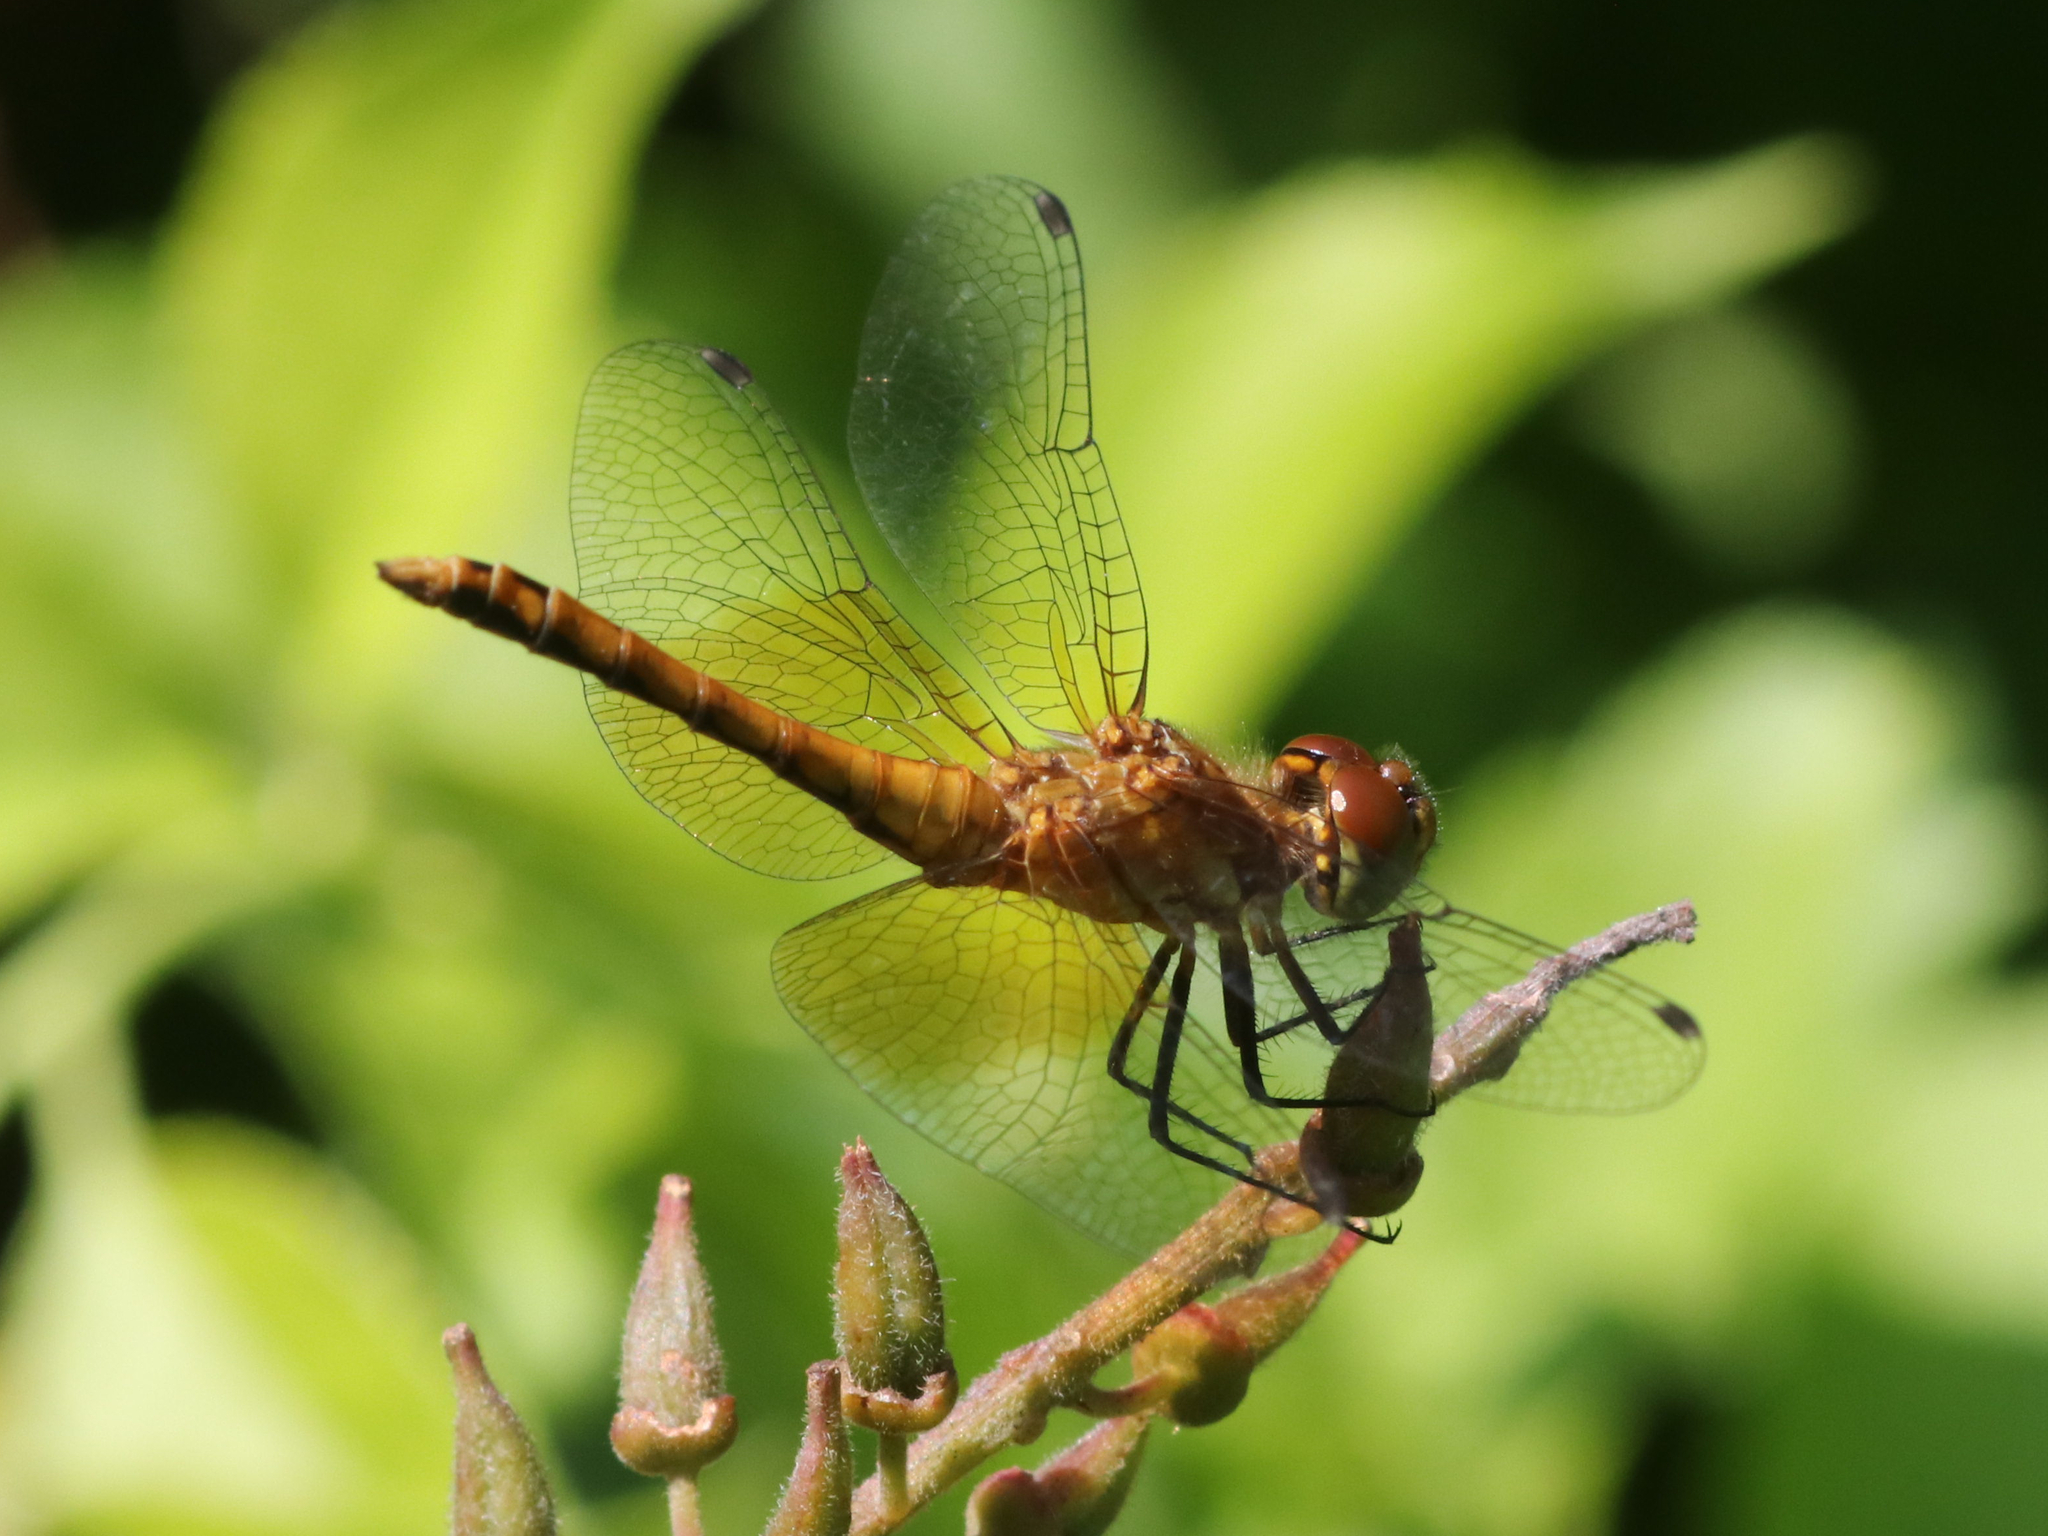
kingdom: Animalia
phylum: Arthropoda
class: Insecta
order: Odonata
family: Libellulidae
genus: Sympetrum
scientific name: Sympetrum semicinctum
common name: Band-winged meadowhawk
